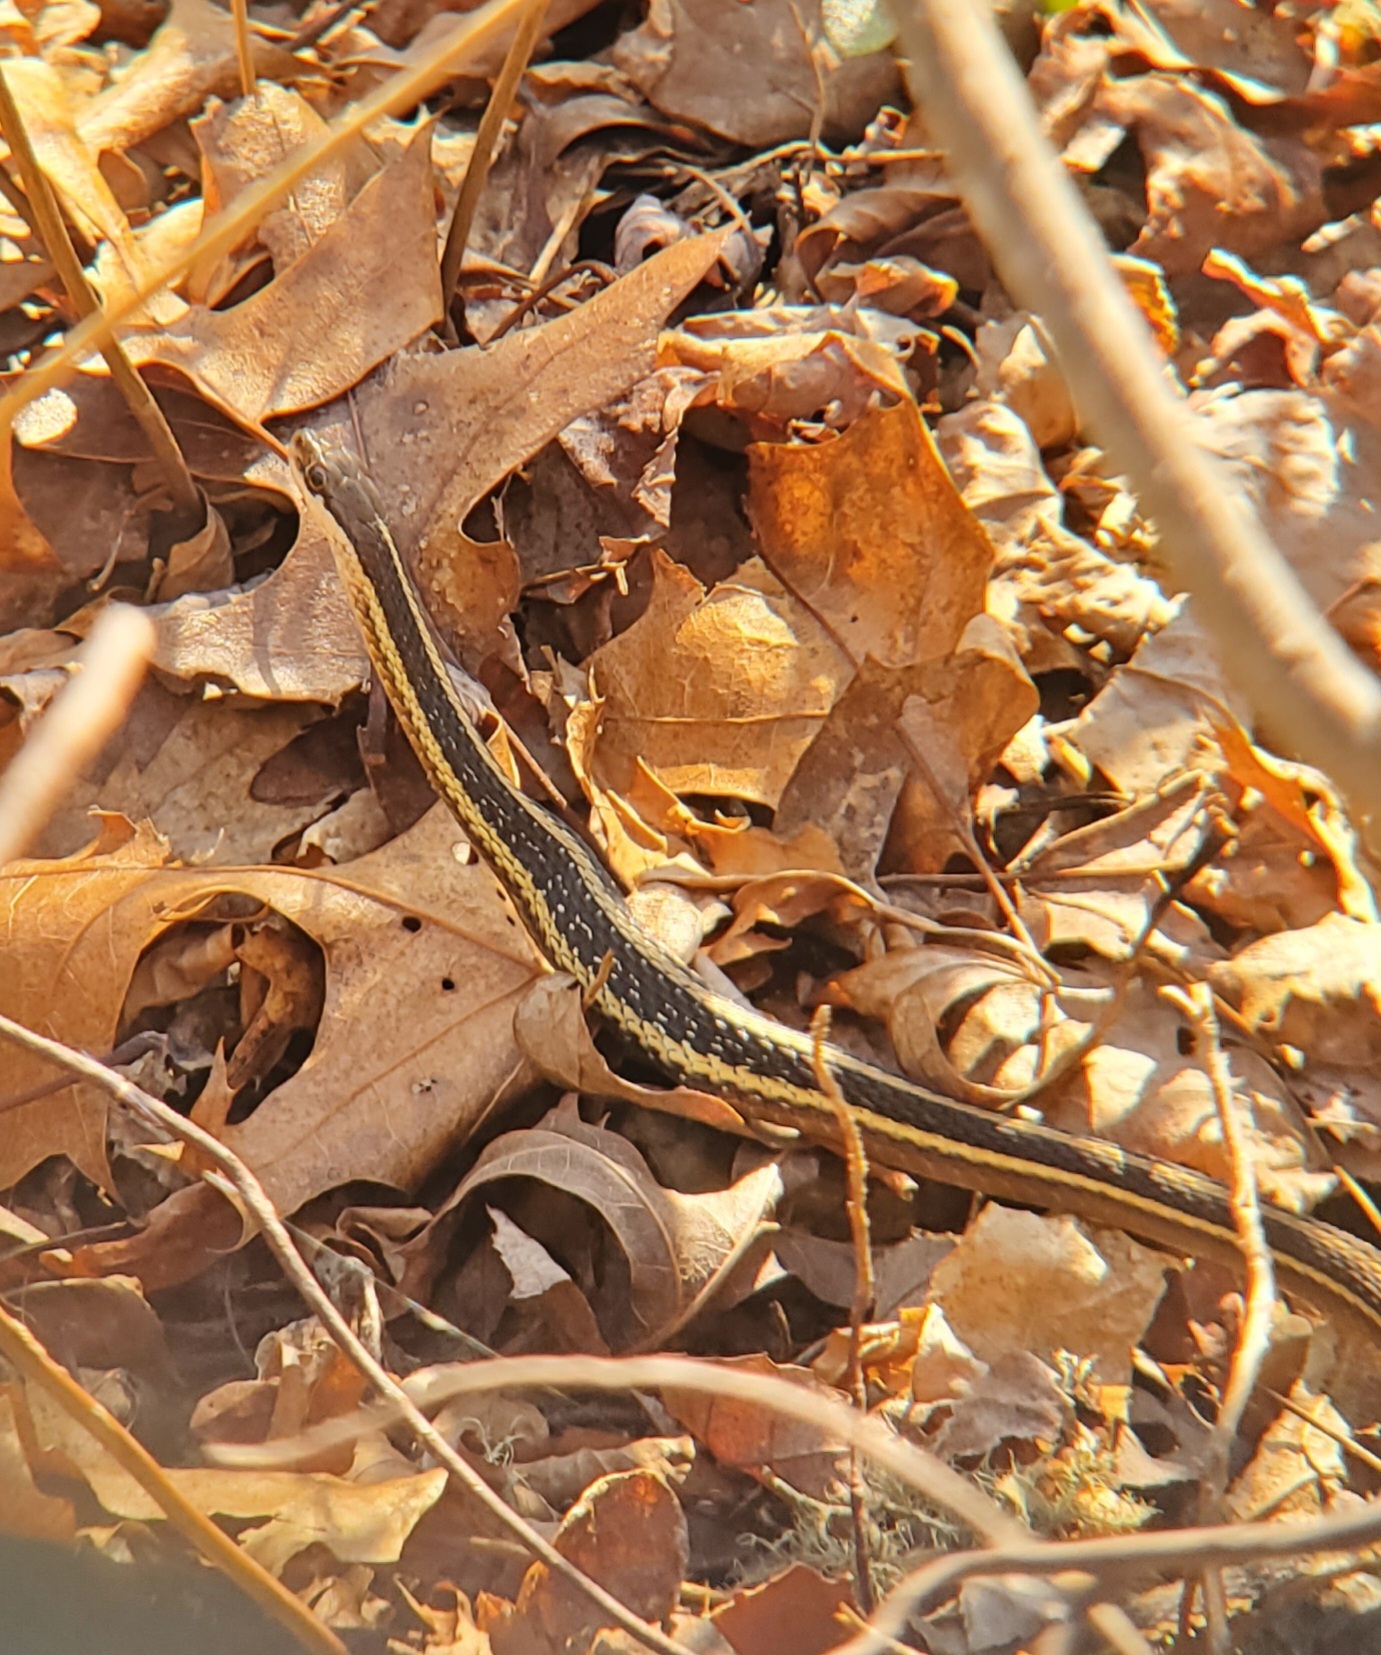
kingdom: Animalia
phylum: Chordata
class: Squamata
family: Colubridae
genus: Thamnophis
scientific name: Thamnophis saurita
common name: Eastern ribbonsnake
